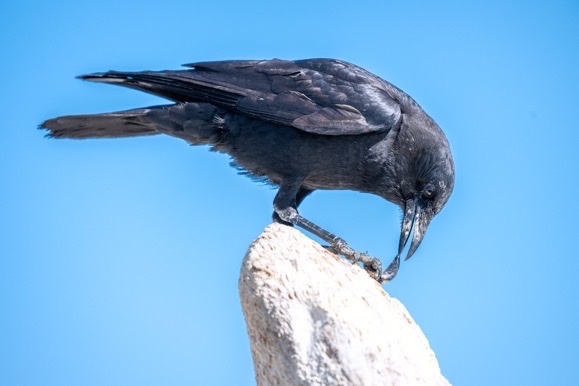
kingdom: Animalia
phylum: Chordata
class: Aves
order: Passeriformes
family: Corvidae
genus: Corvus
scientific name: Corvus brachyrhynchos
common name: American crow
